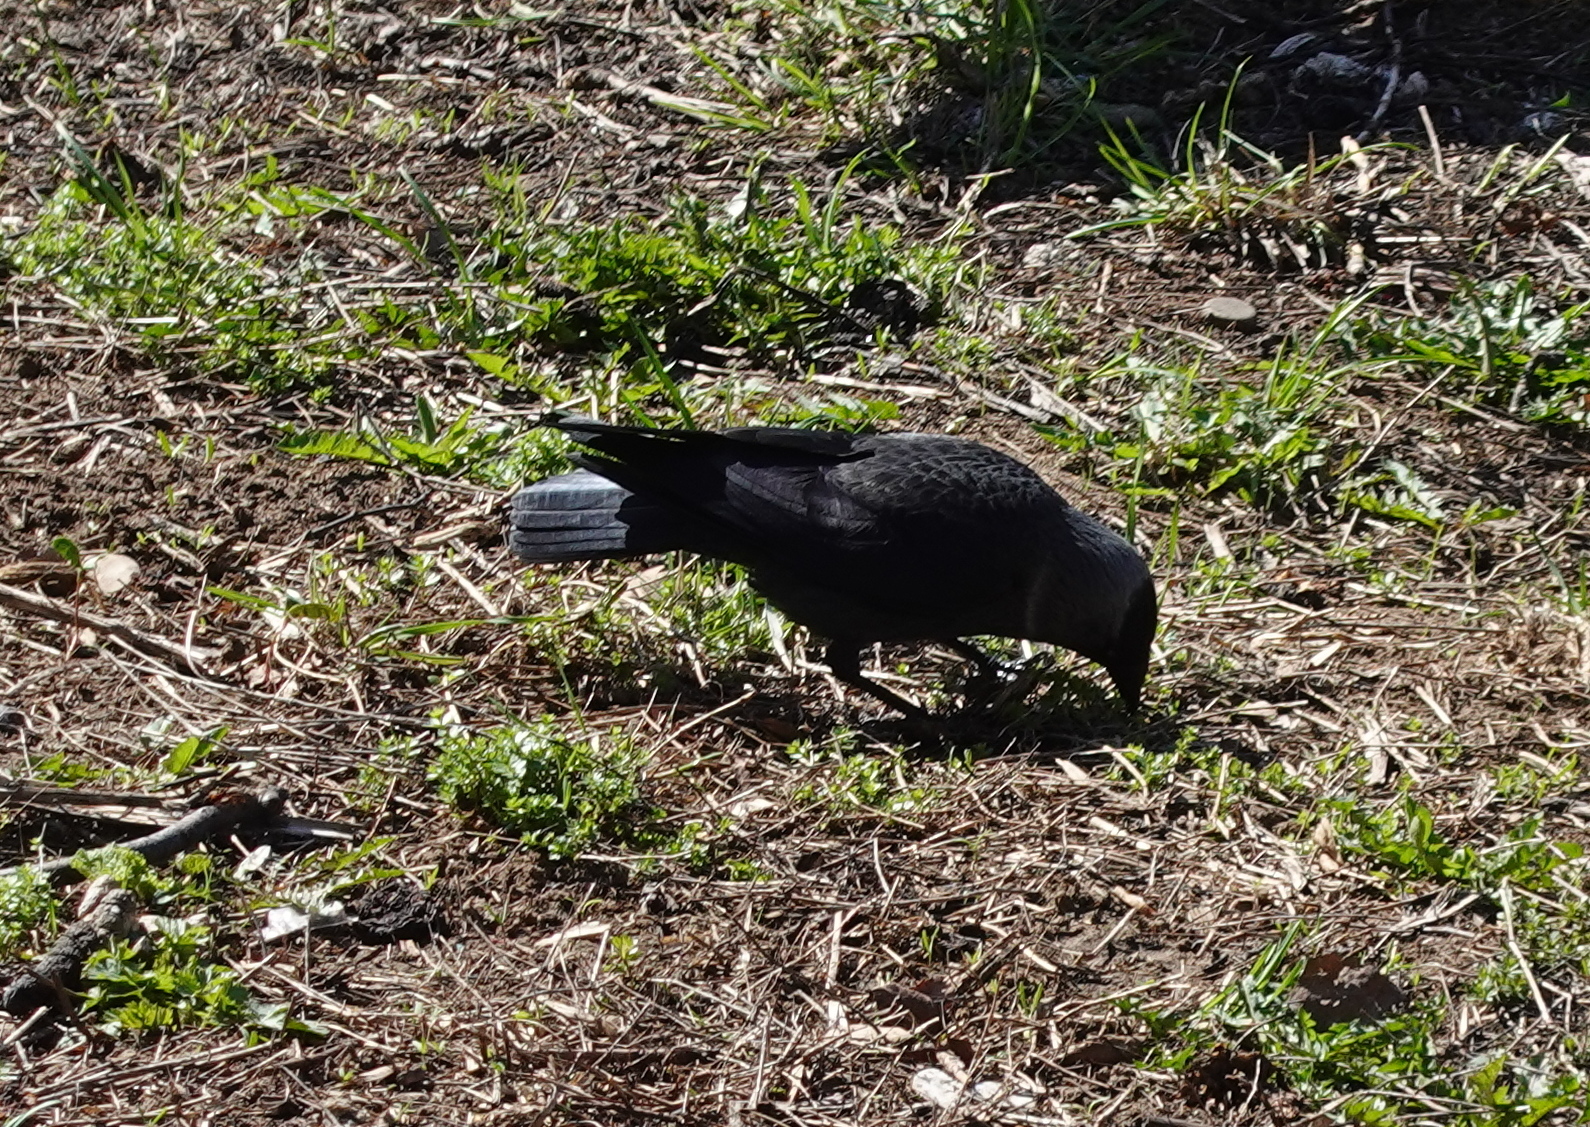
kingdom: Animalia
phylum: Chordata
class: Aves
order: Passeriformes
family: Corvidae
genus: Coloeus
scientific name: Coloeus monedula
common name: Western jackdaw
